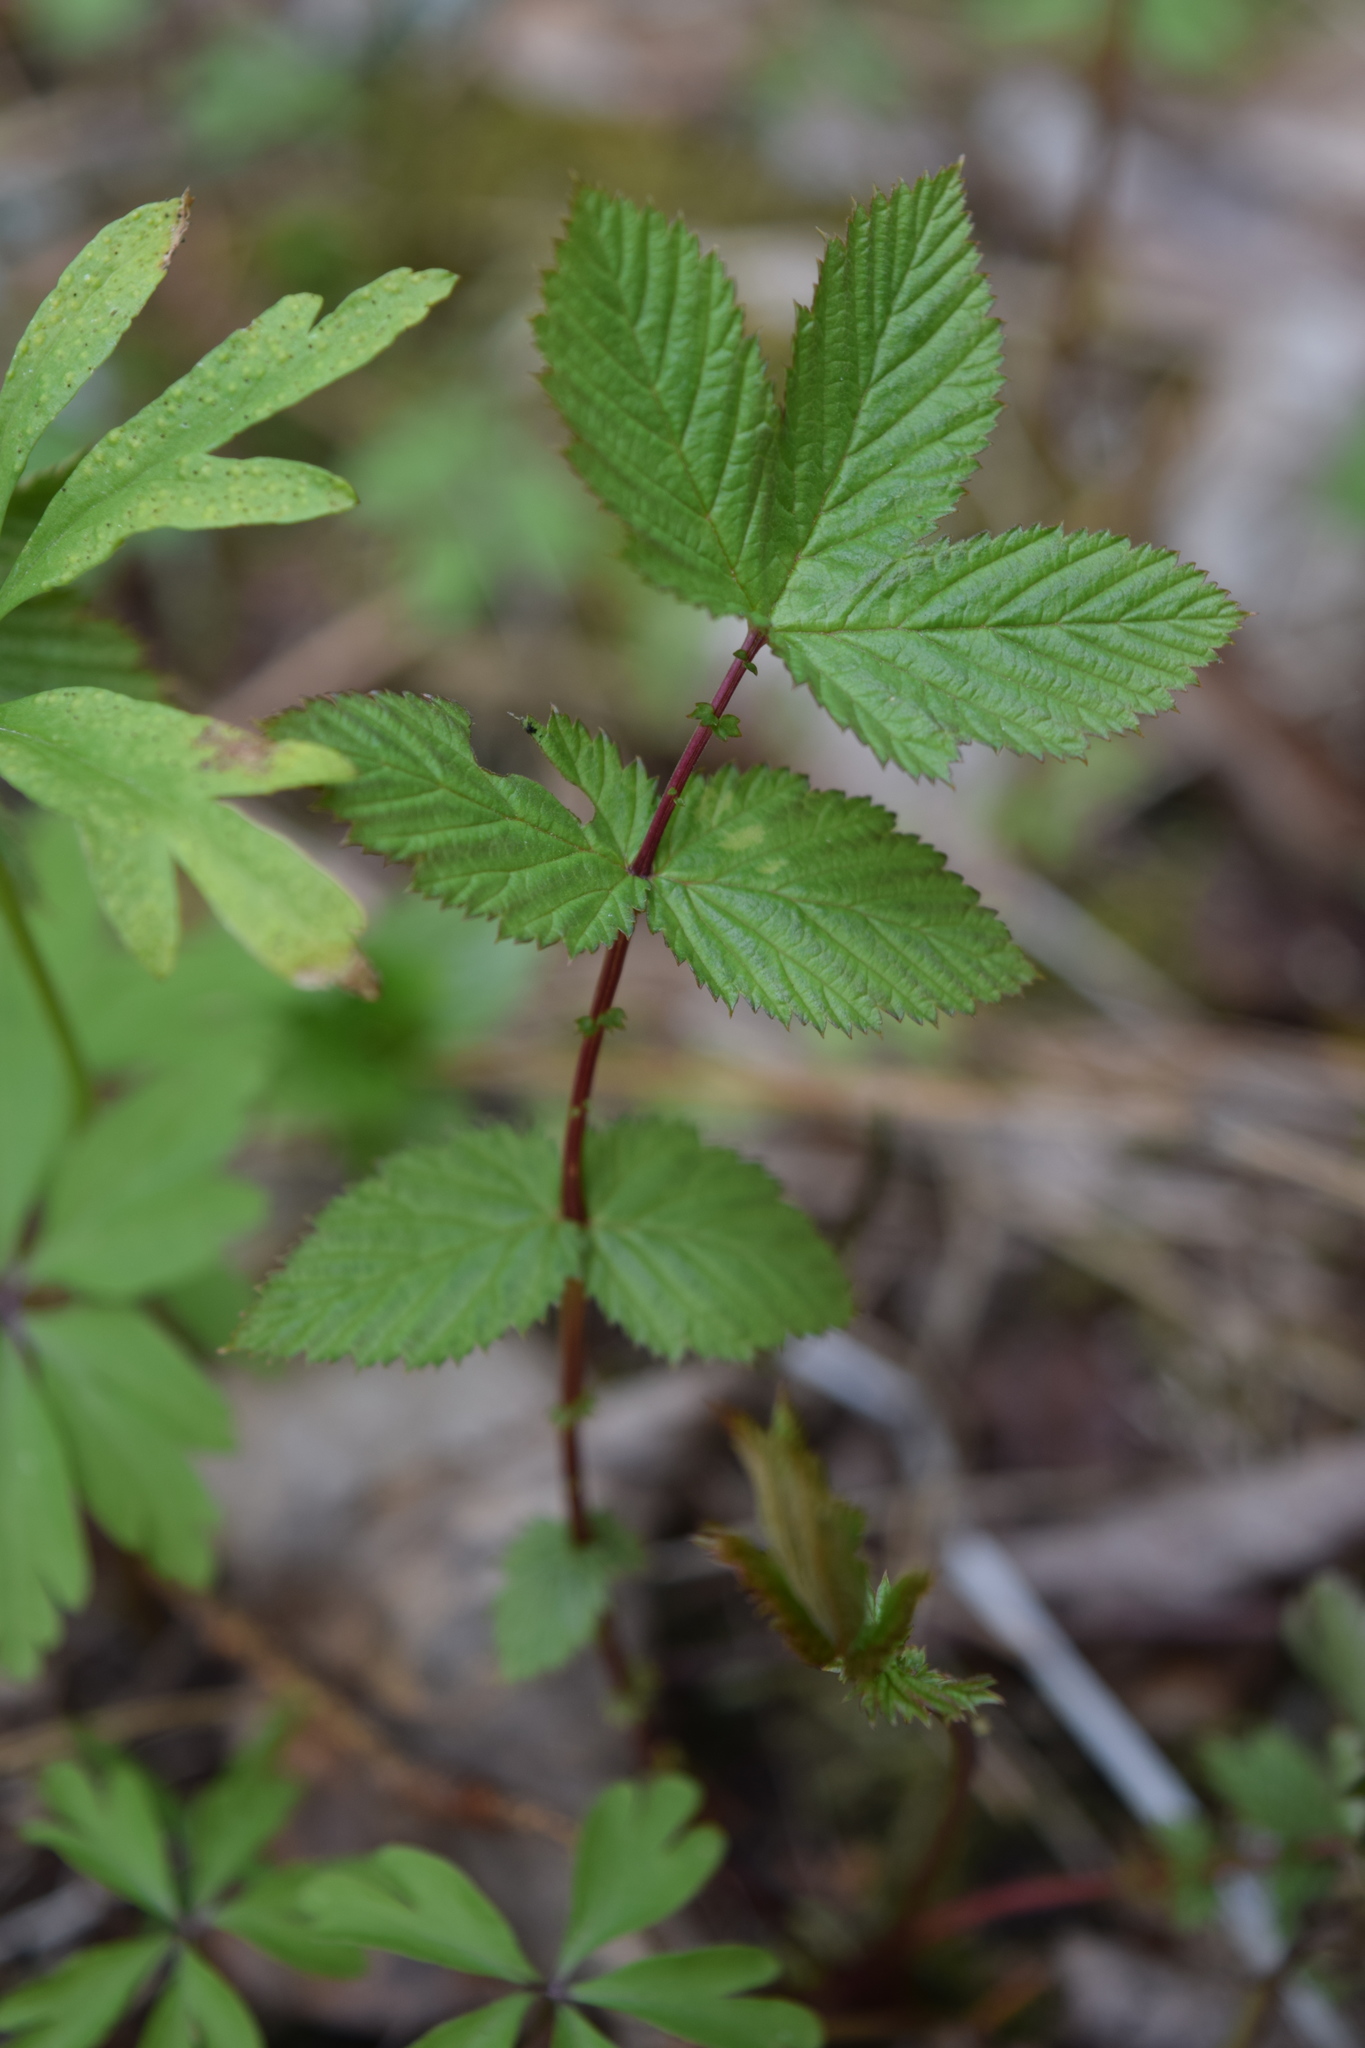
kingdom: Plantae
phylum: Tracheophyta
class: Magnoliopsida
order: Rosales
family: Rosaceae
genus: Filipendula
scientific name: Filipendula ulmaria
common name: Meadowsweet
